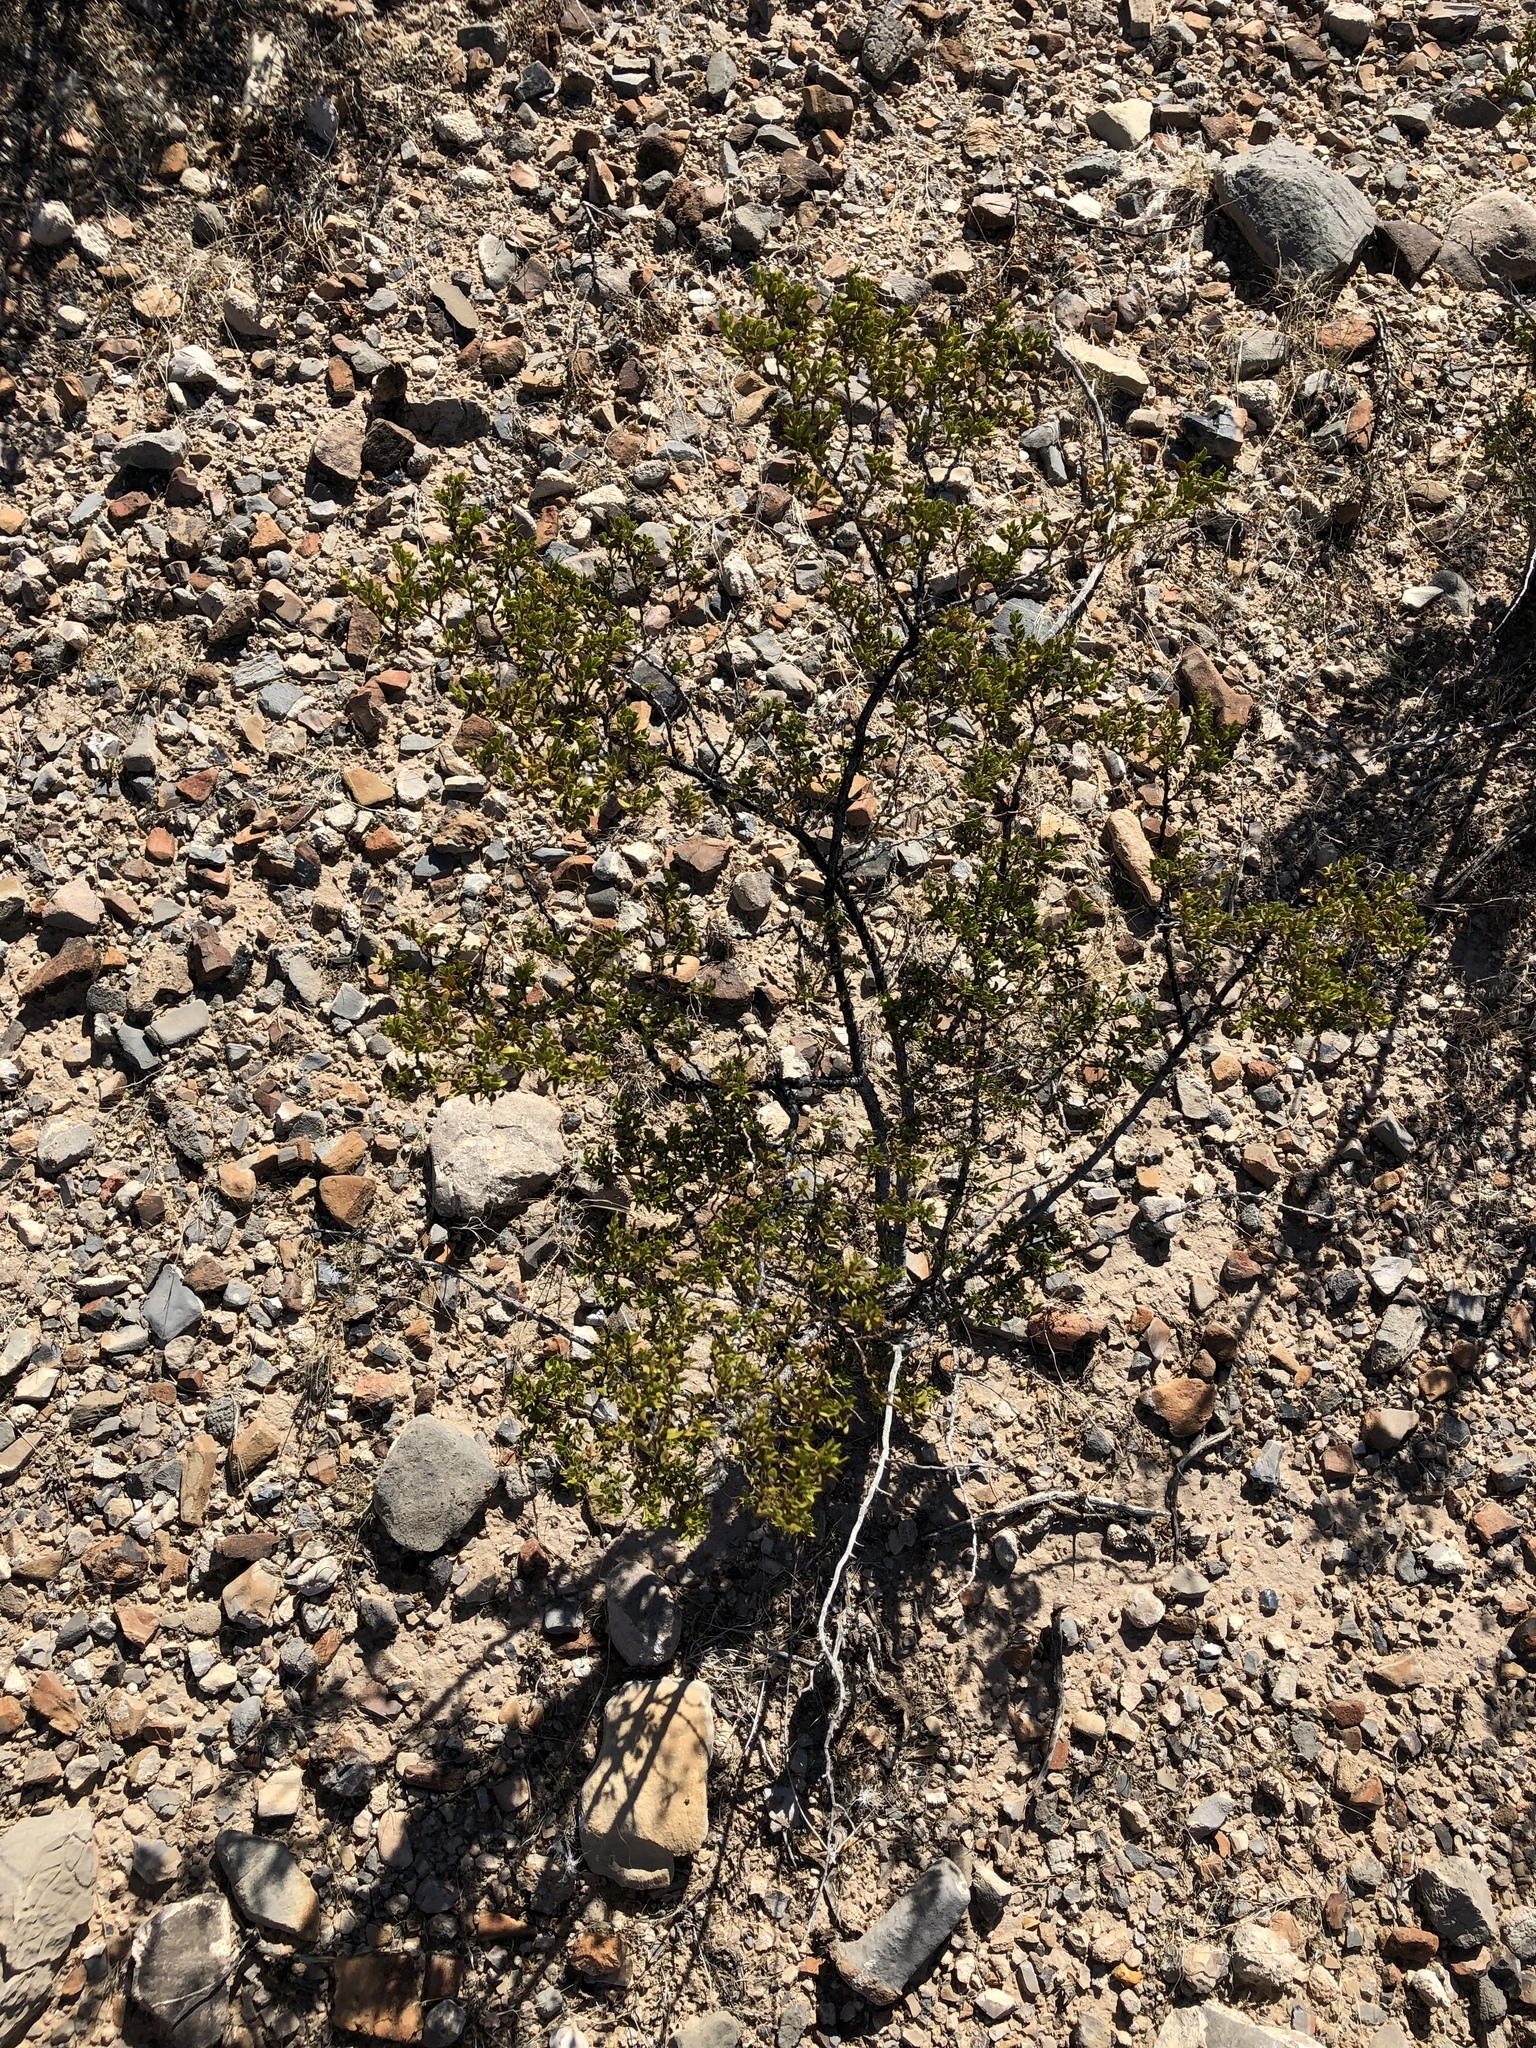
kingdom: Plantae
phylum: Tracheophyta
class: Magnoliopsida
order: Zygophyllales
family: Zygophyllaceae
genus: Larrea
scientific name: Larrea tridentata
